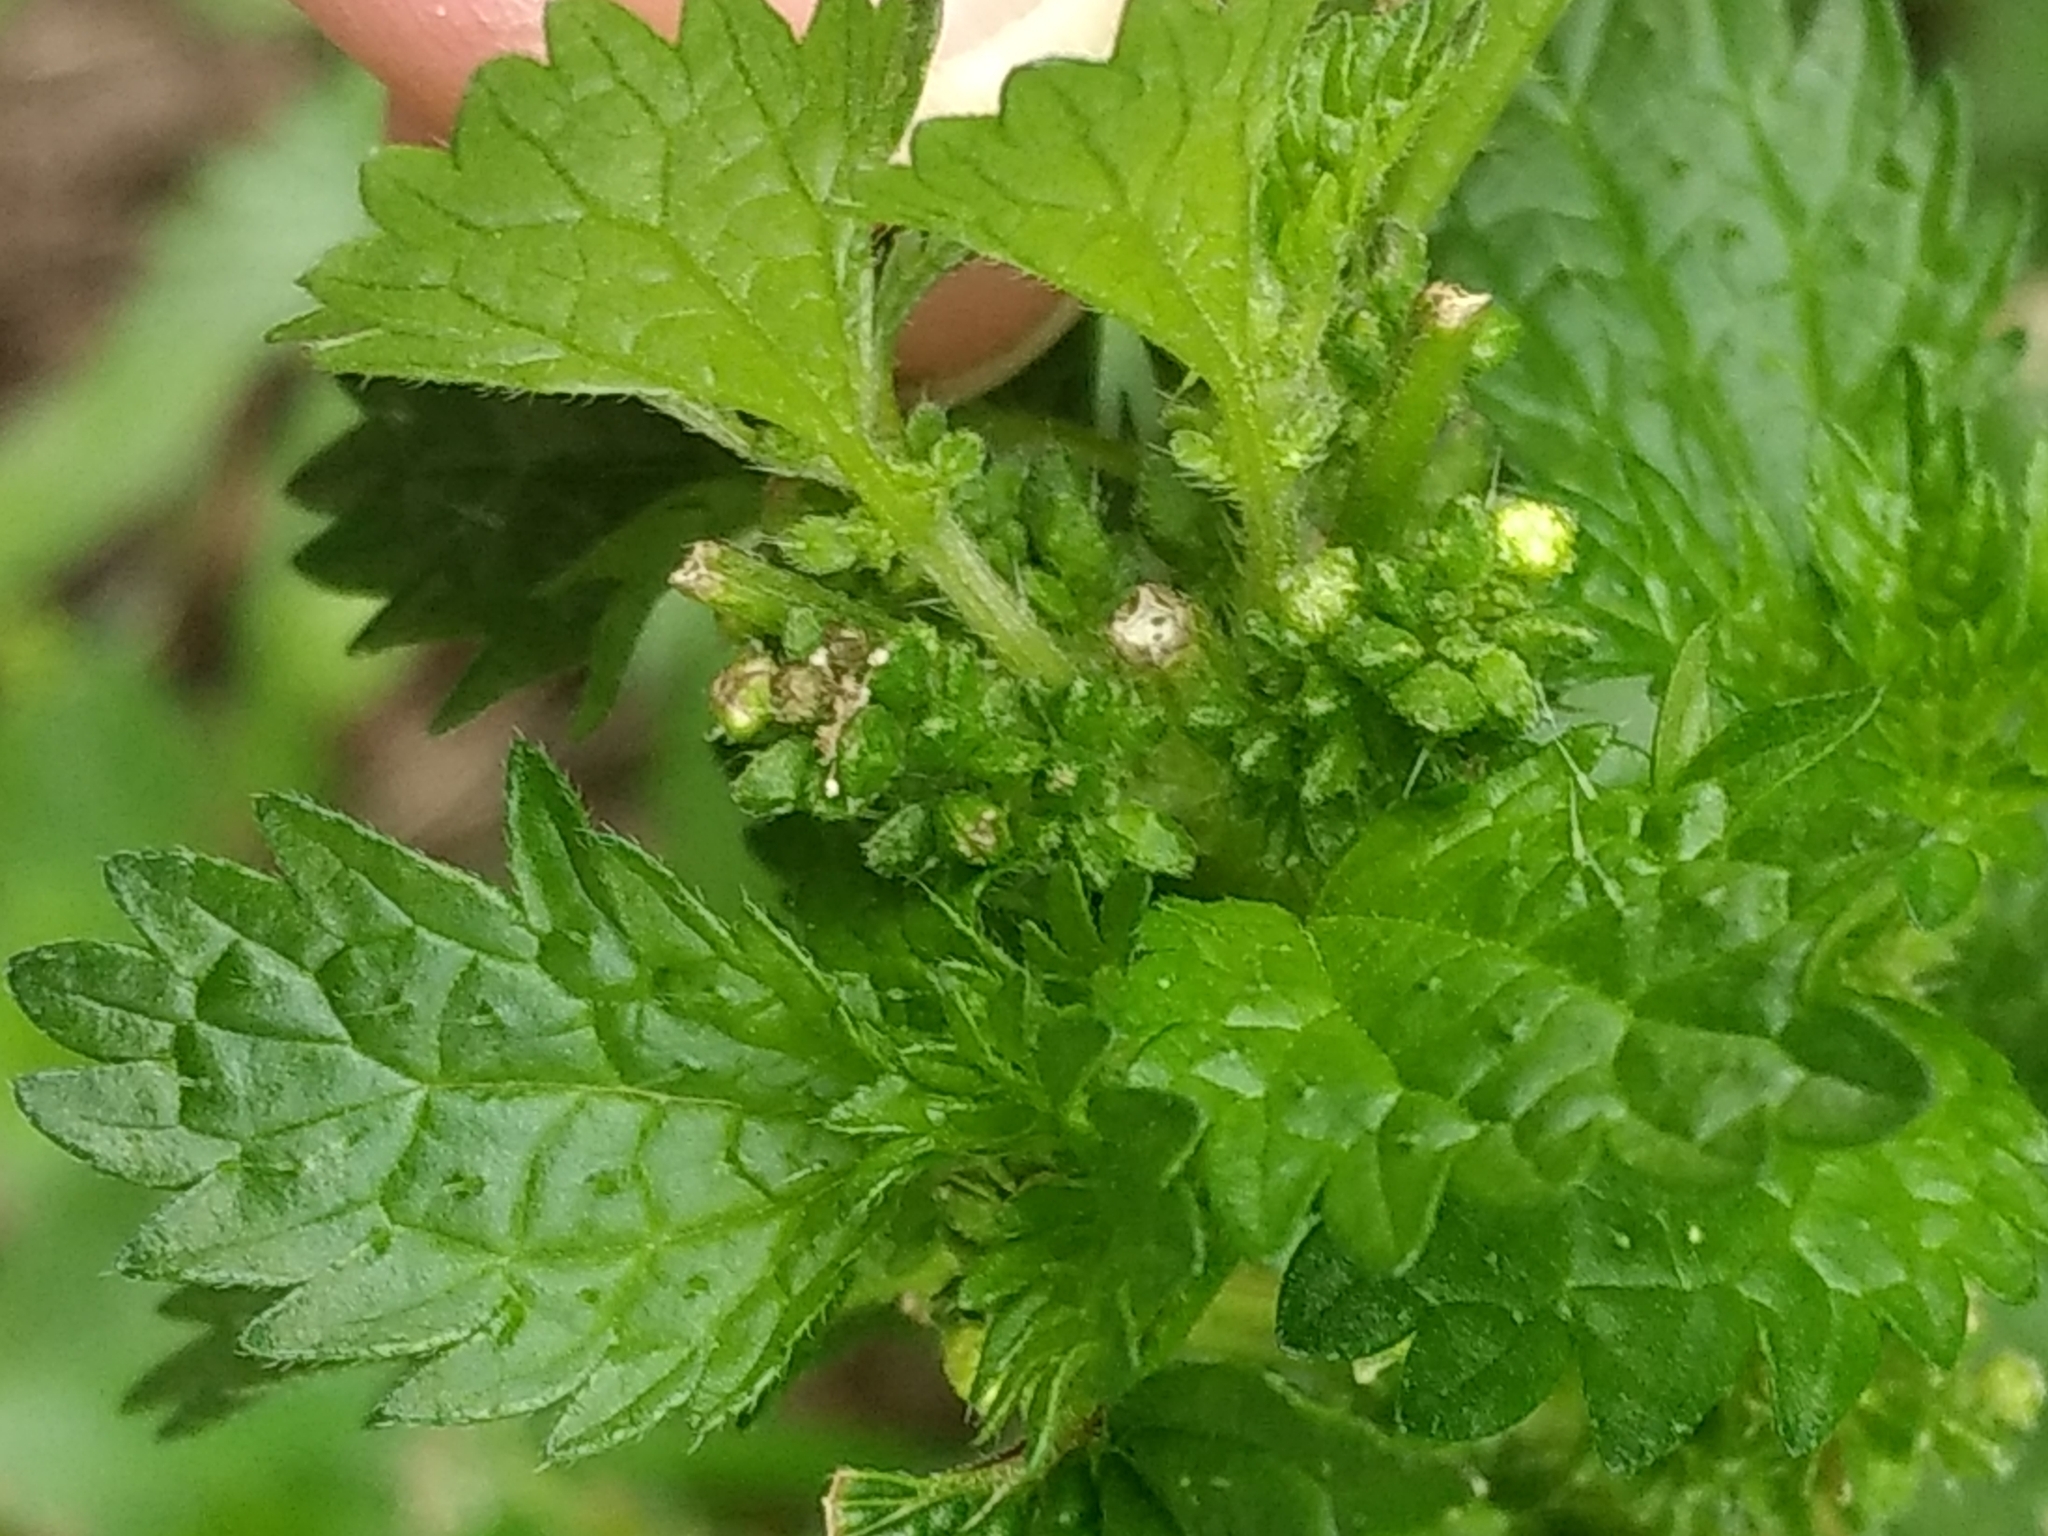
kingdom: Plantae
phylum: Tracheophyta
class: Magnoliopsida
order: Rosales
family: Urticaceae
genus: Urtica
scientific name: Urtica urens
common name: Dwarf nettle
